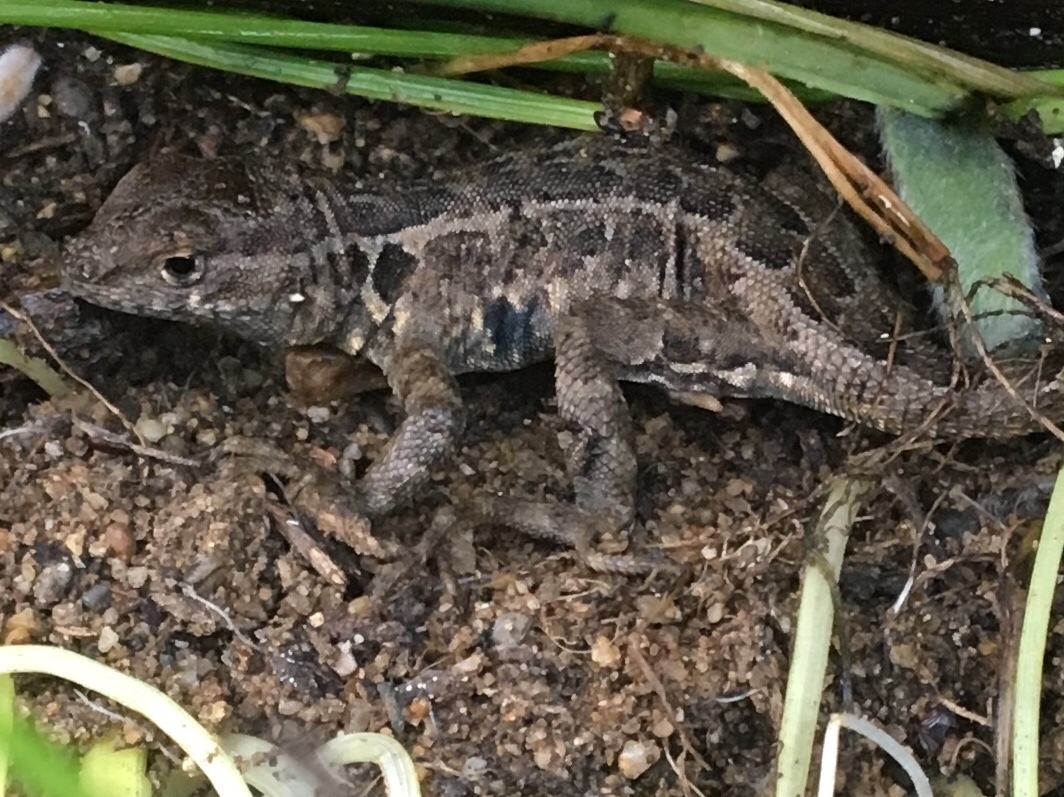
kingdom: Animalia
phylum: Chordata
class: Squamata
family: Phrynosomatidae
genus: Uta
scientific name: Uta stansburiana
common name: Side-blotched lizard
